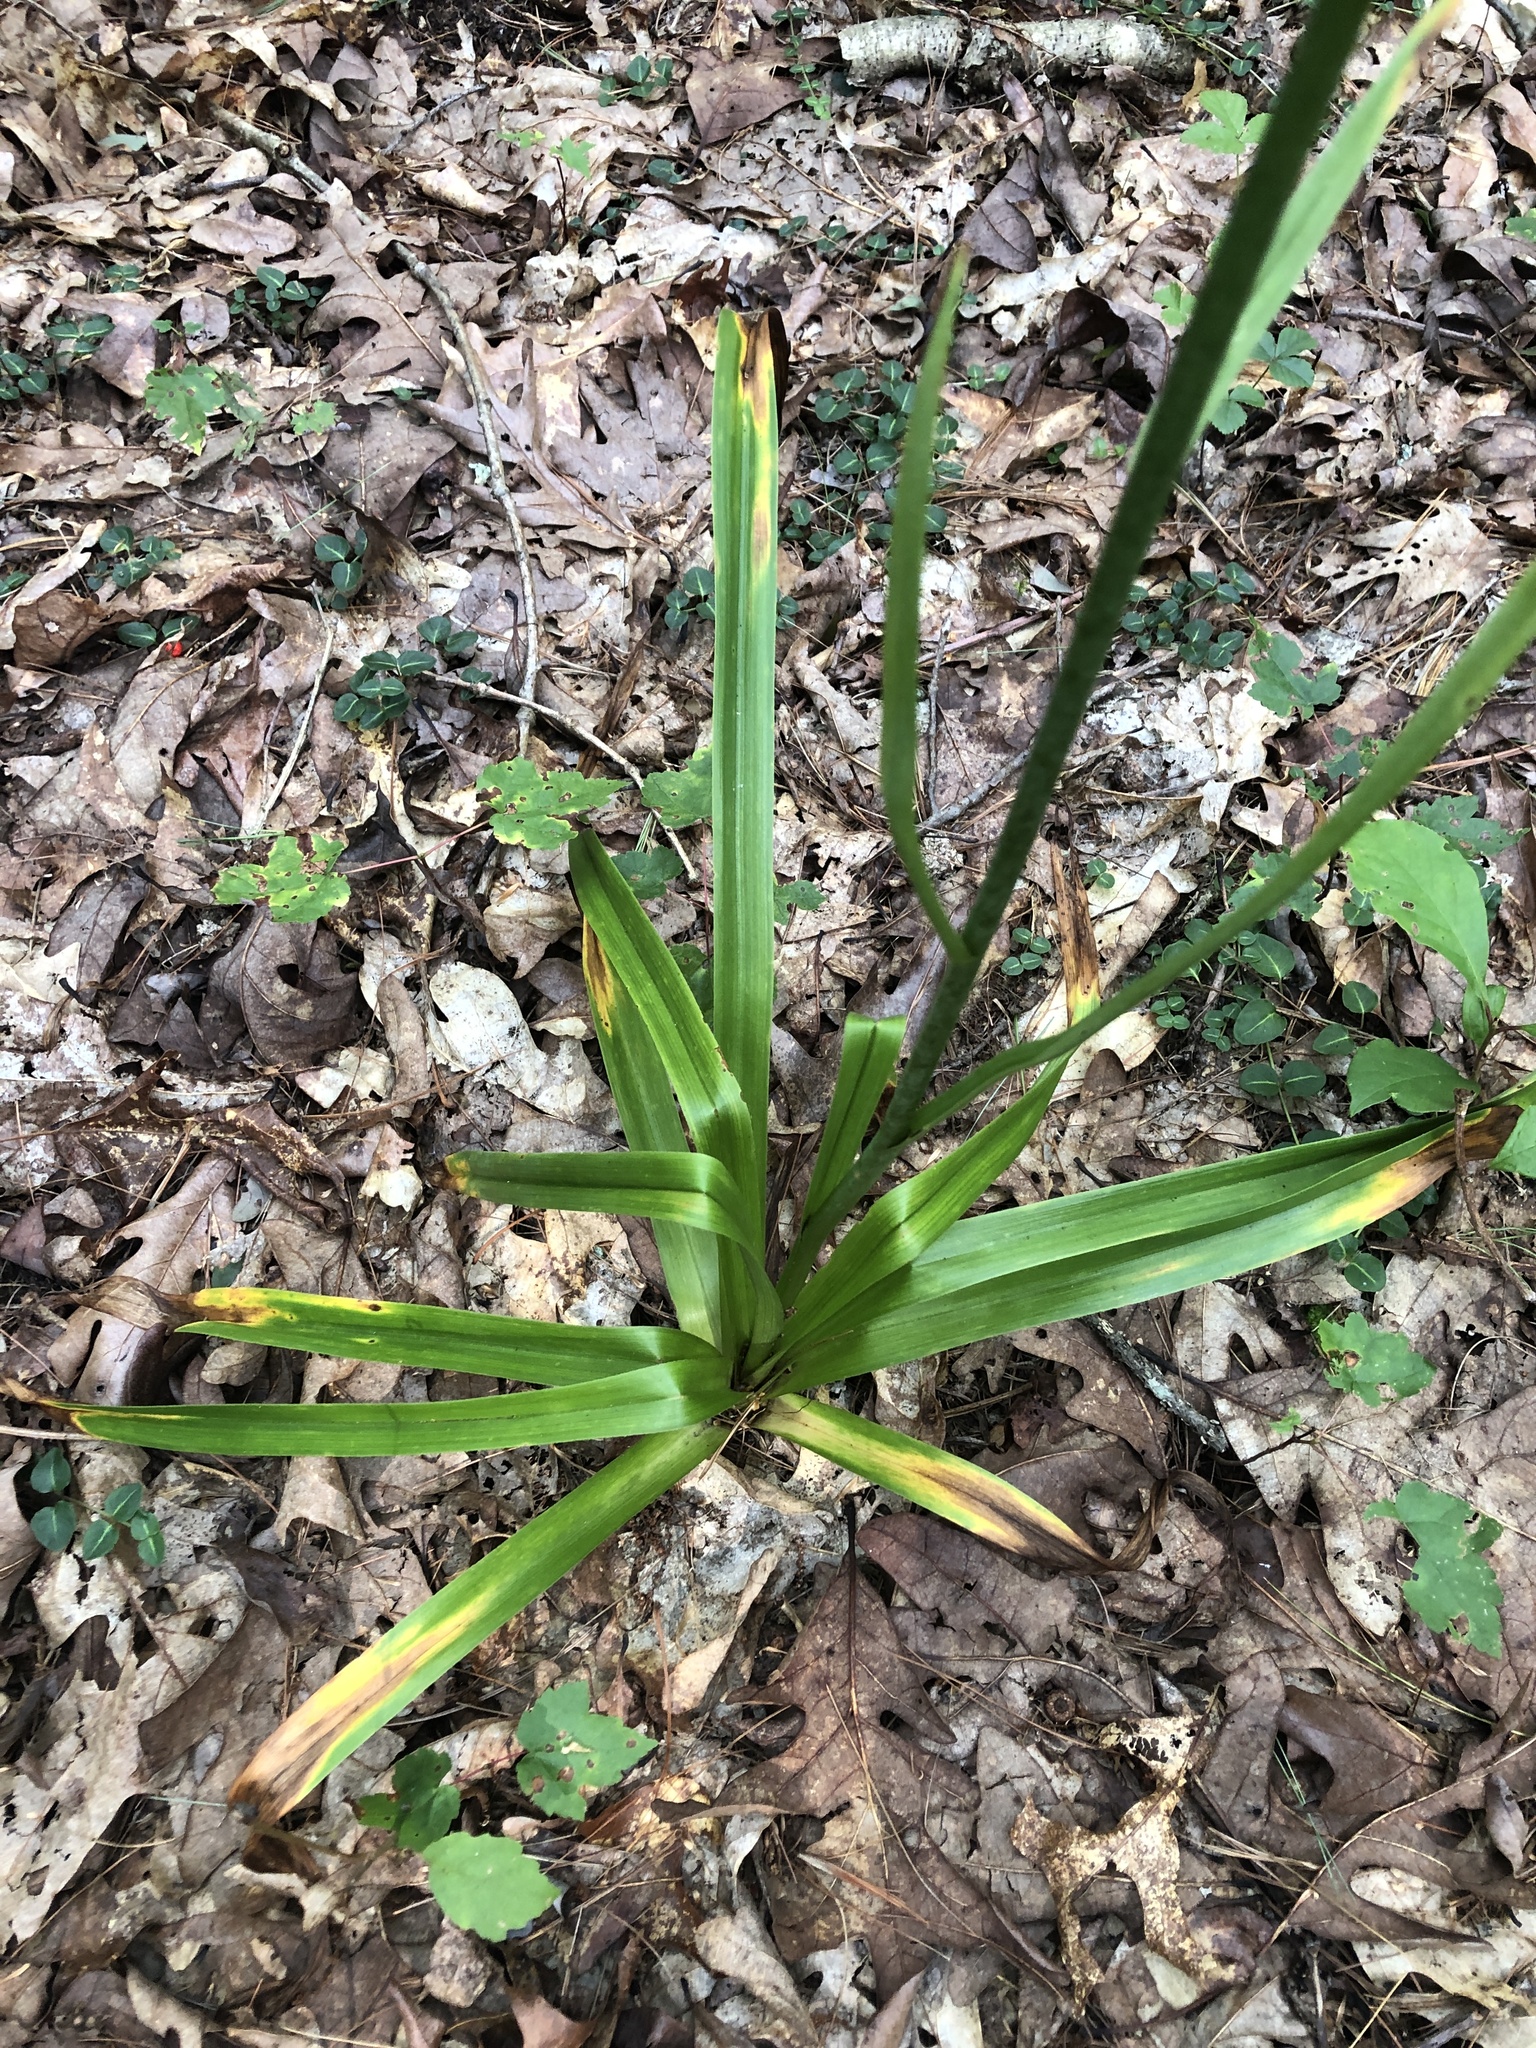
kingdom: Plantae
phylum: Tracheophyta
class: Liliopsida
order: Liliales
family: Melanthiaceae
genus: Amianthium
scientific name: Amianthium muscitoxicum
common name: Fly-poison
